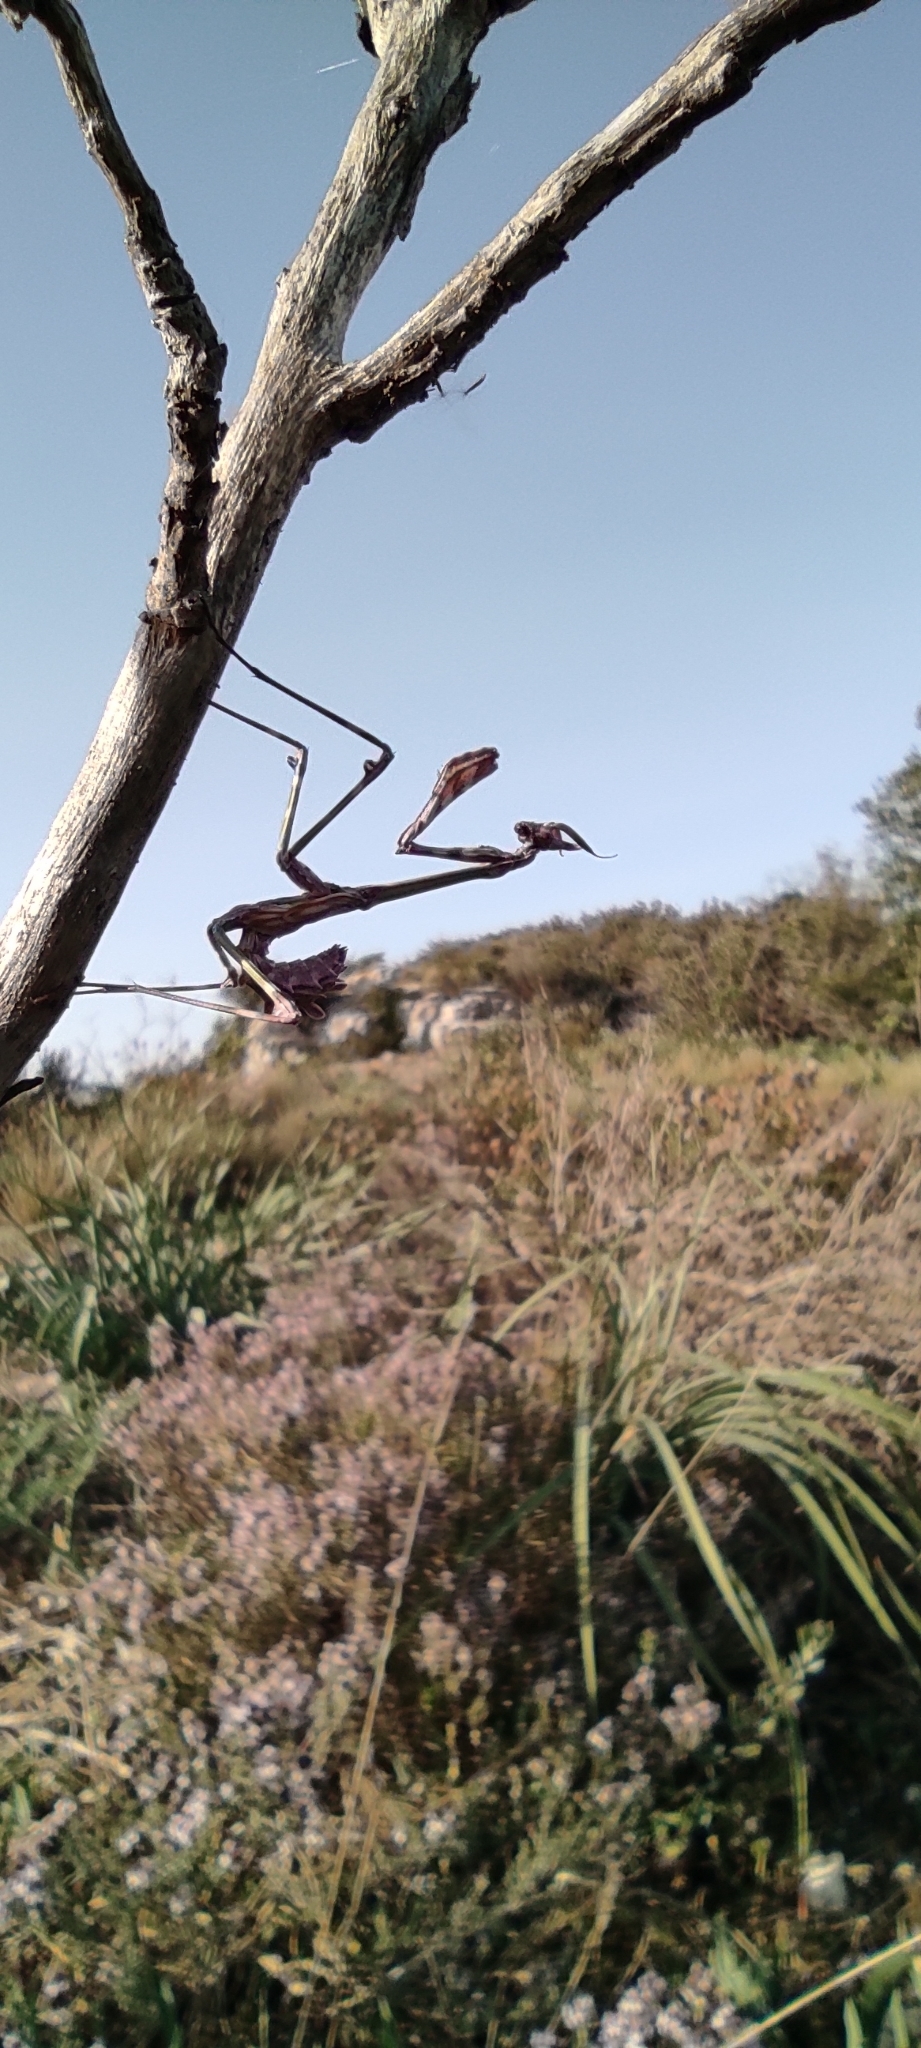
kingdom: Animalia
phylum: Arthropoda
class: Insecta
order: Mantodea
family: Empusidae
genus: Empusa
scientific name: Empusa pennata
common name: Conehead mantis
